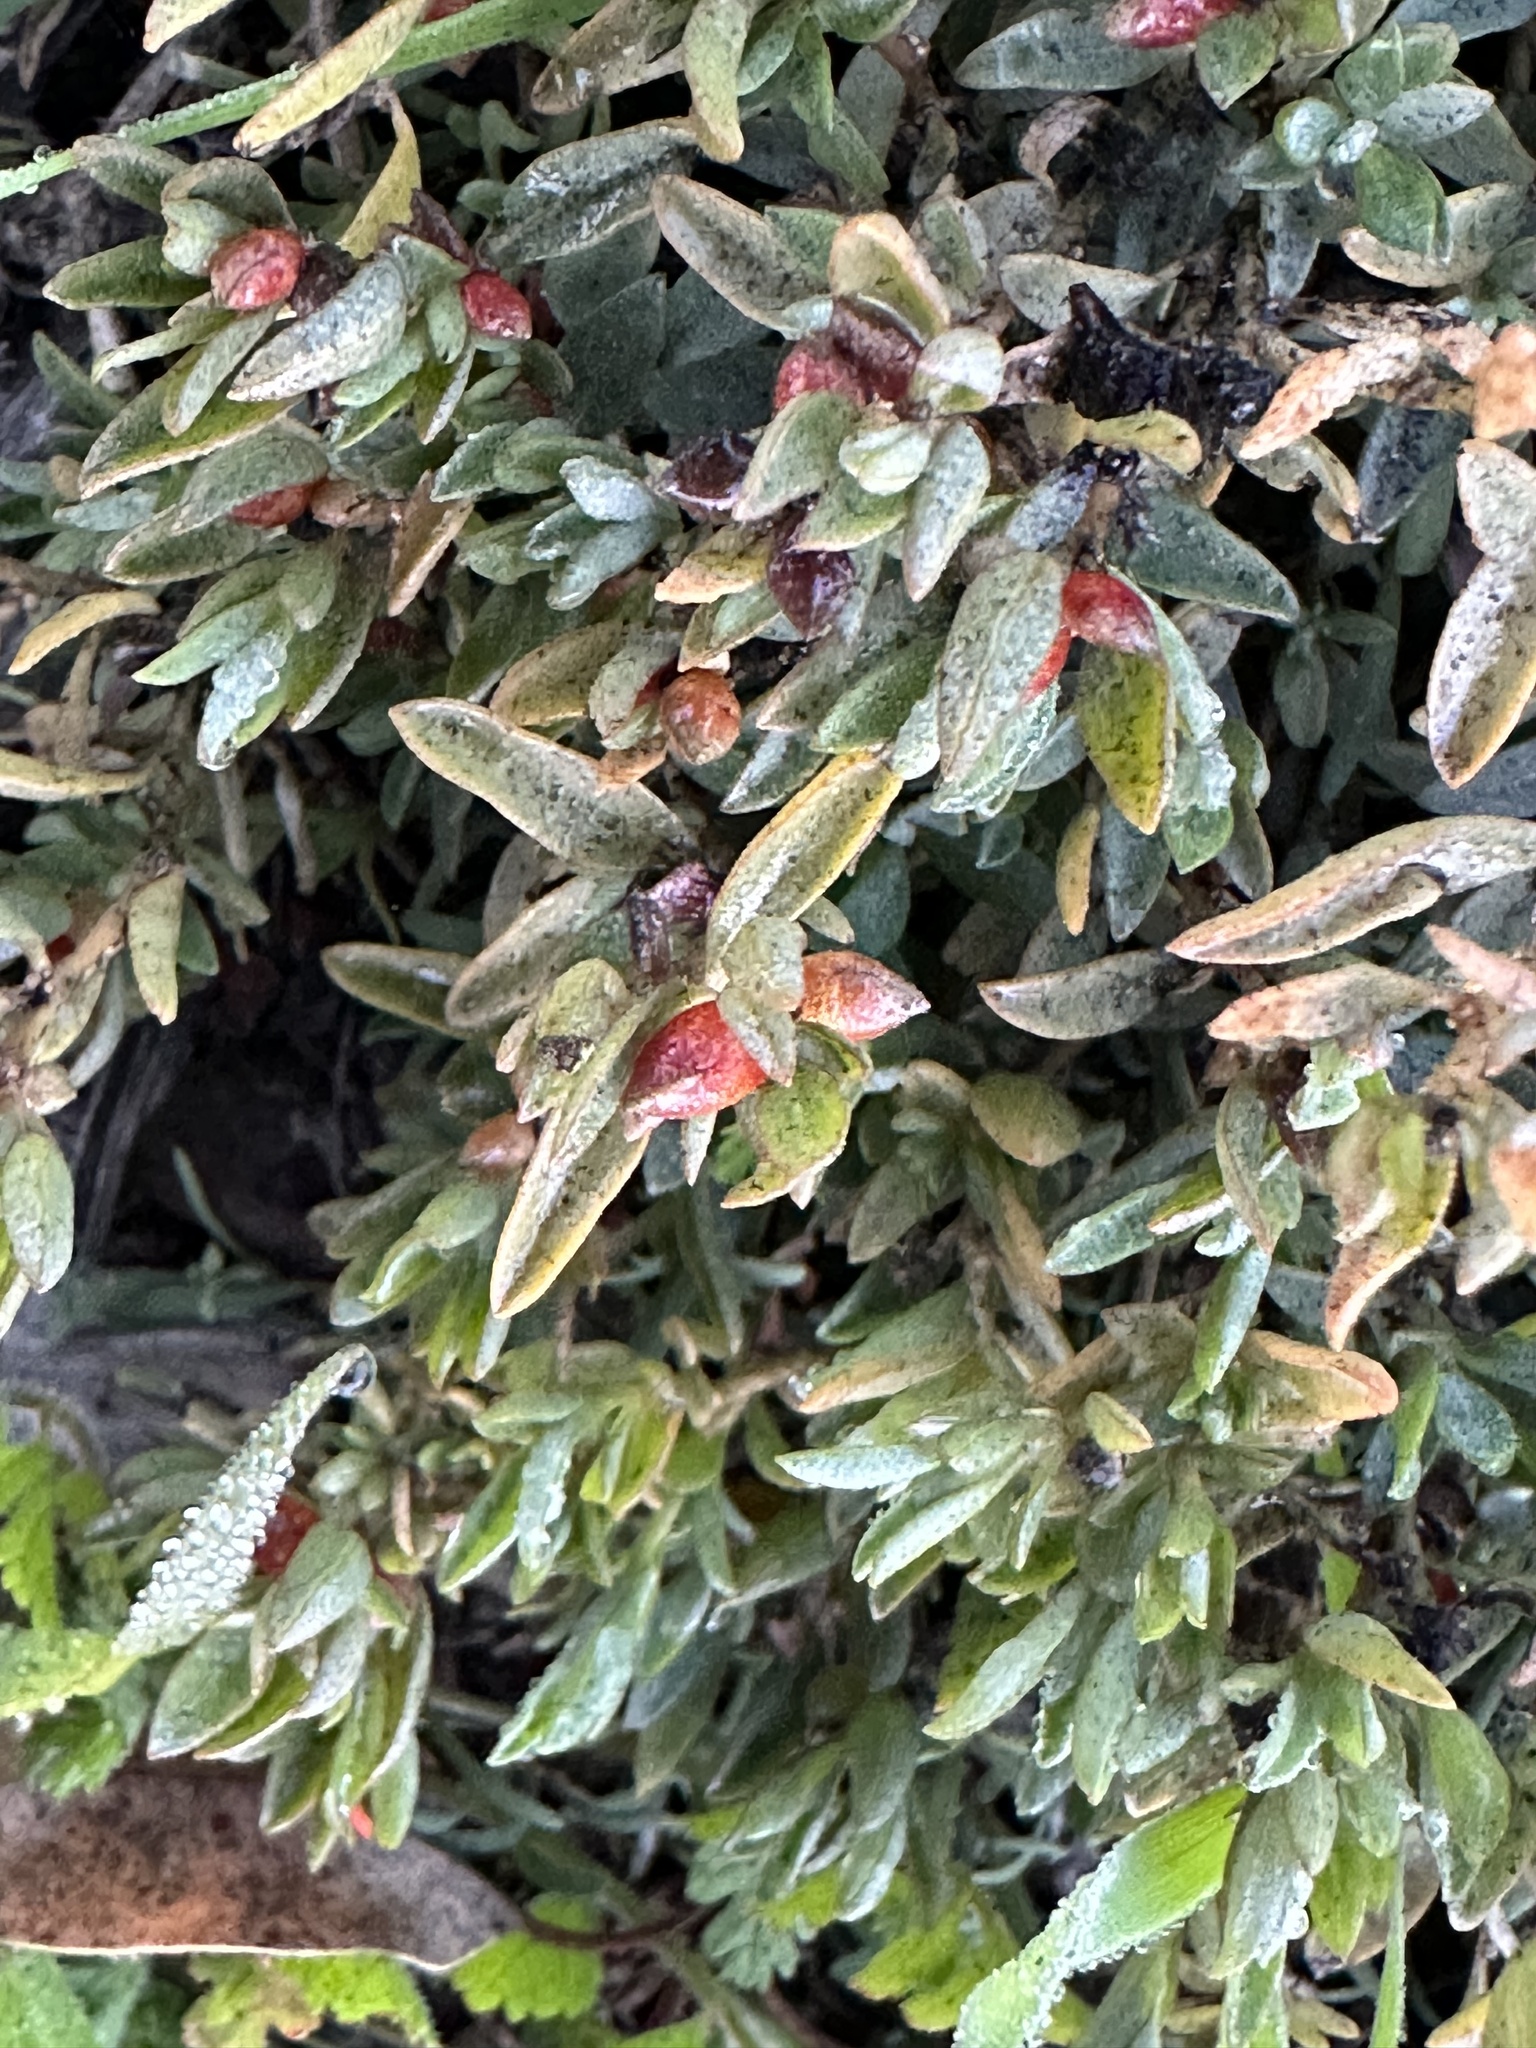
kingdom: Plantae
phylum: Tracheophyta
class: Magnoliopsida
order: Caryophyllales
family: Amaranthaceae
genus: Atriplex
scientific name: Atriplex semibaccata
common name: Australian saltbush
